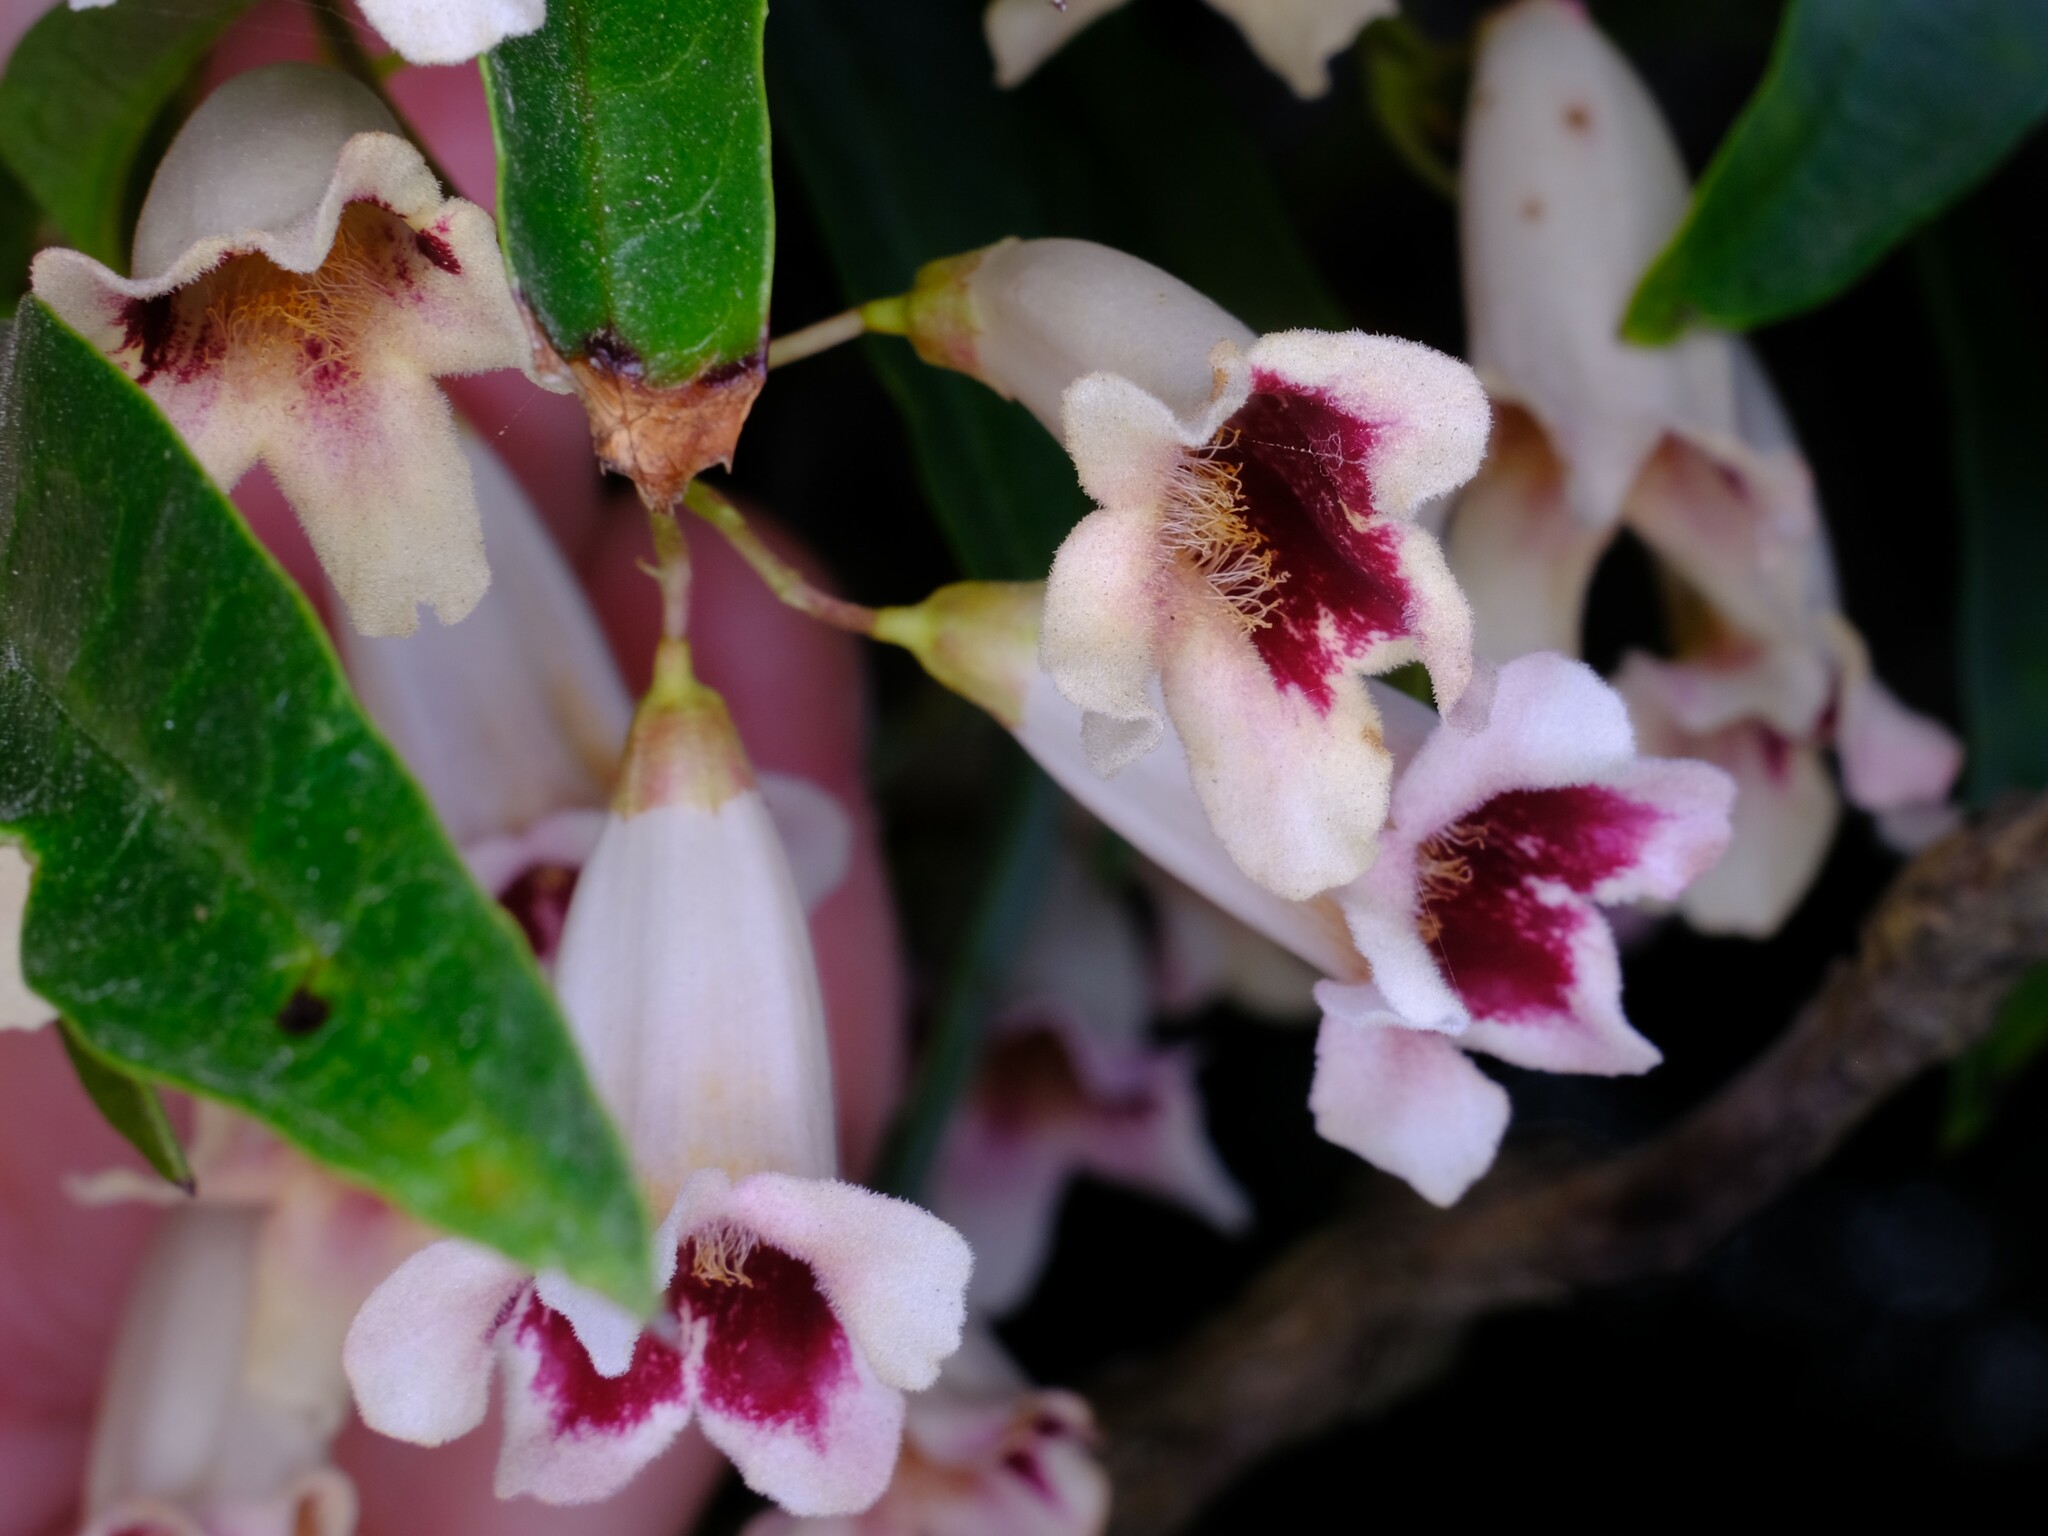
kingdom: Plantae
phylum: Tracheophyta
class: Magnoliopsida
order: Lamiales
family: Bignoniaceae
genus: Pandorea
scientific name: Pandorea pandorana
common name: Wonga-wonga-vine
